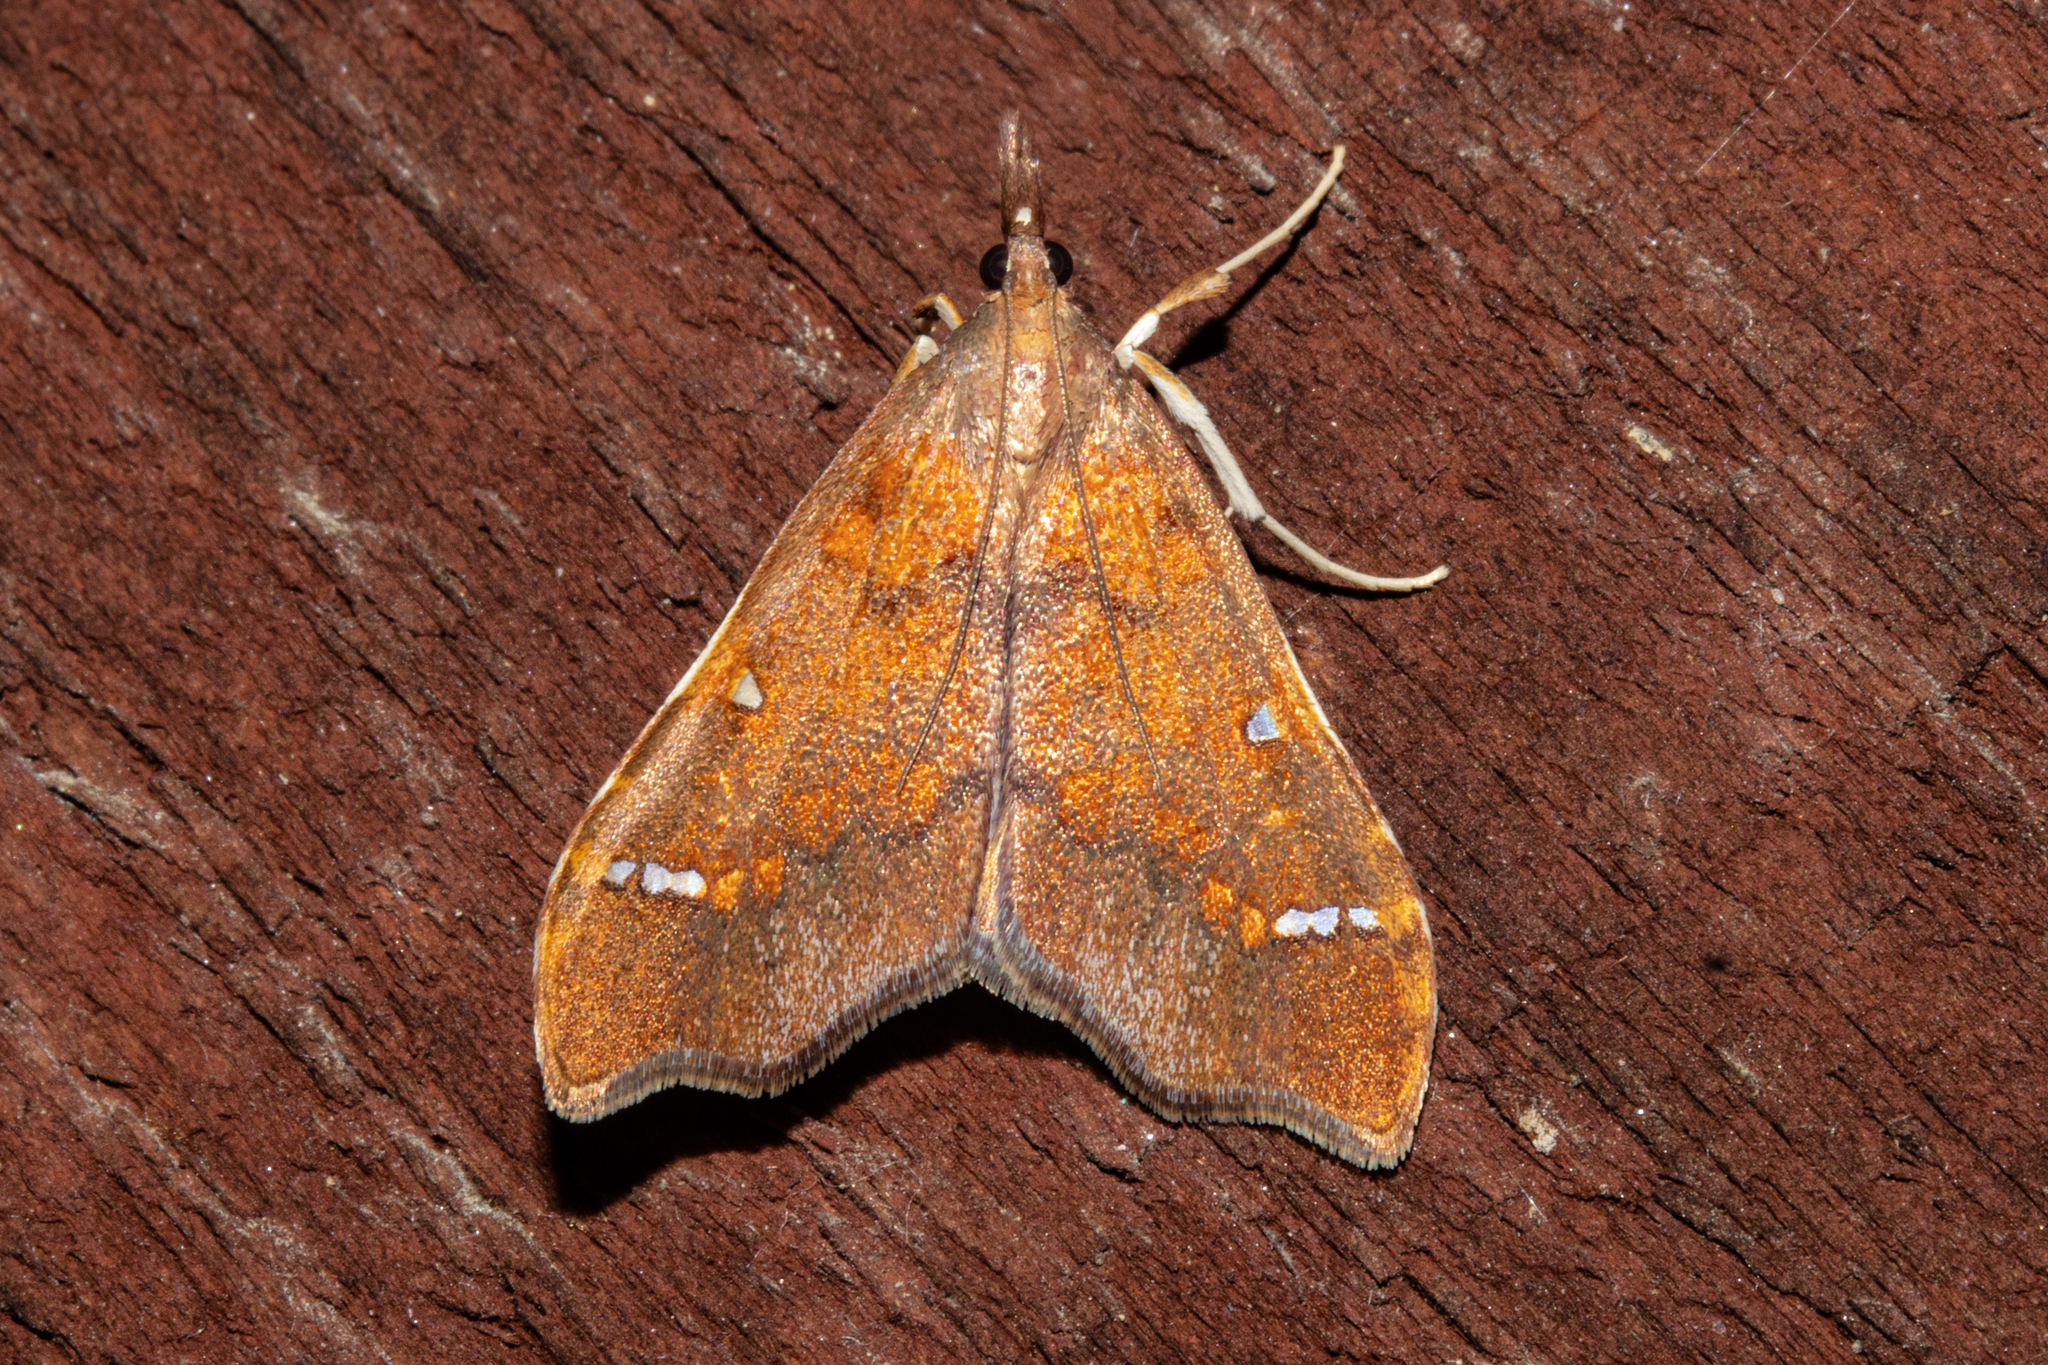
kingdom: Animalia
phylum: Arthropoda
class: Insecta
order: Lepidoptera
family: Crambidae
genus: Deana
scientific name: Deana hybreasalis
